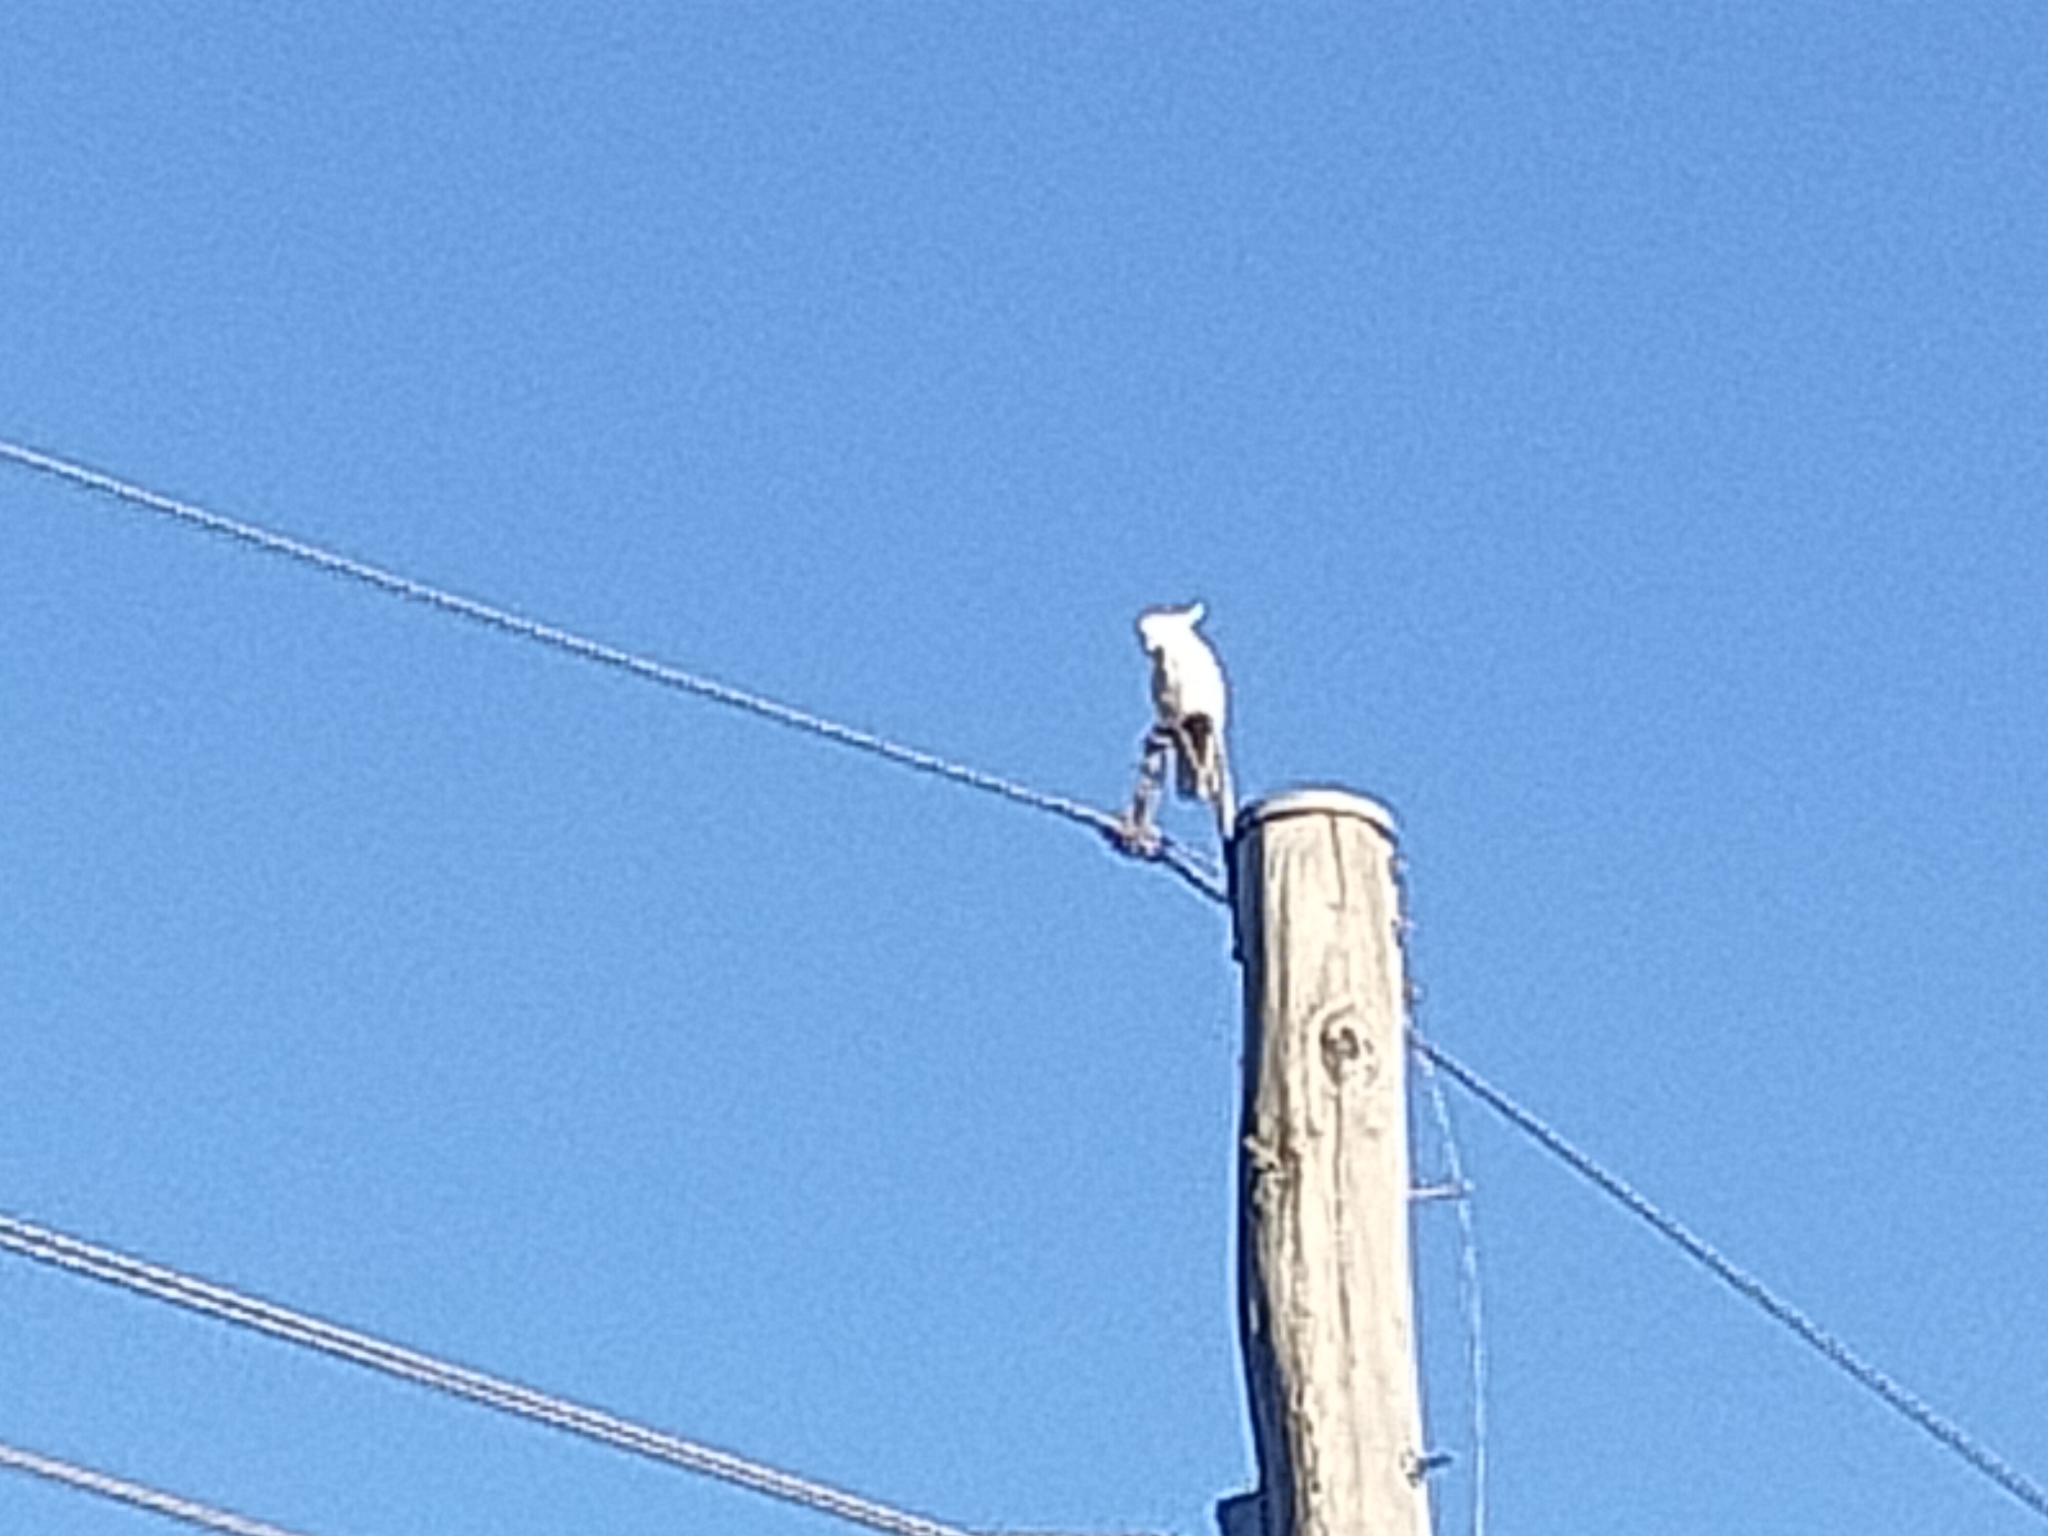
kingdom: Animalia
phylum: Chordata
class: Aves
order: Psittaciformes
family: Psittacidae
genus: Cacatua
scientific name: Cacatua galerita
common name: Sulphur-crested cockatoo
